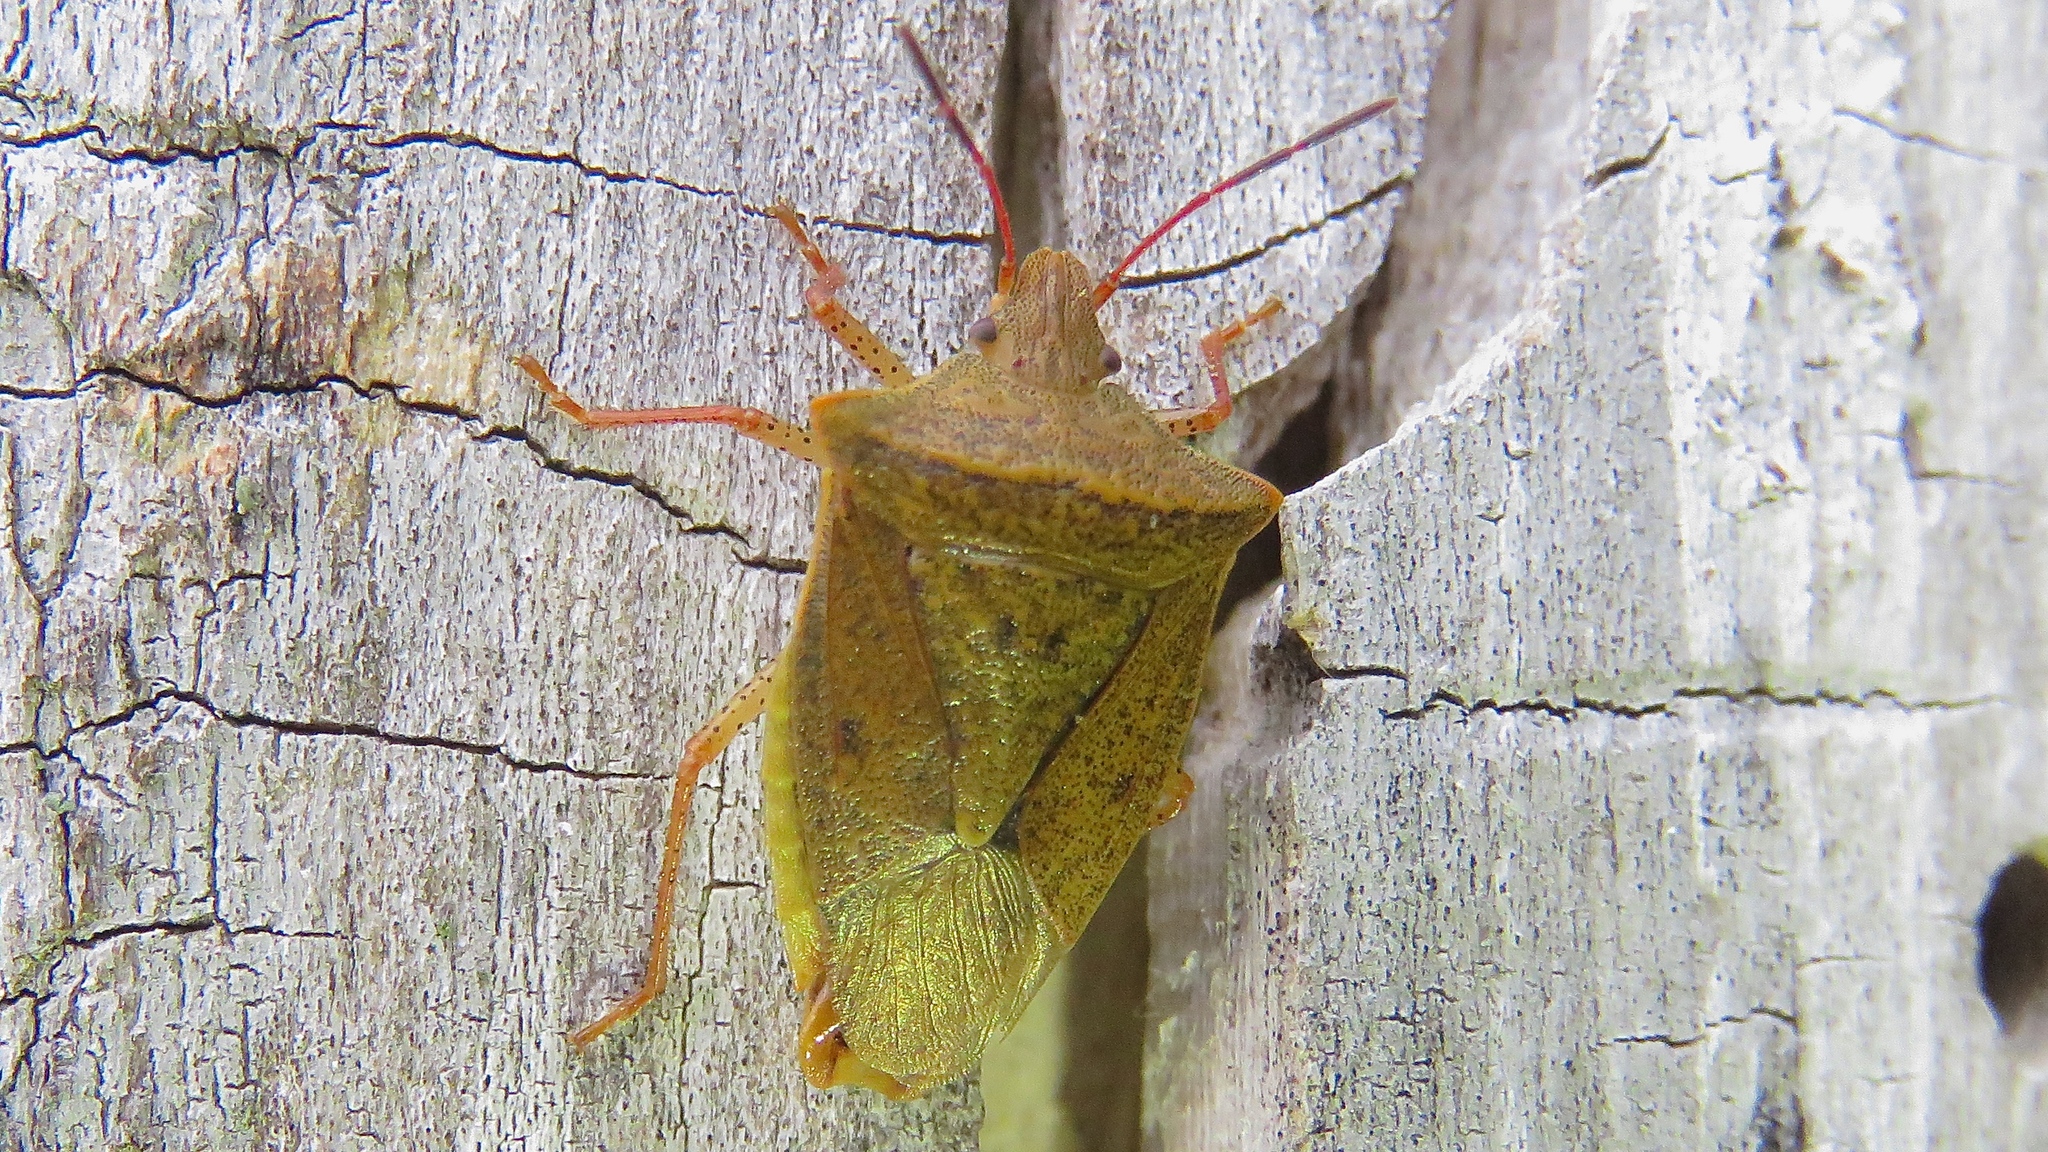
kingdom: Animalia
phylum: Arthropoda
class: Insecta
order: Hemiptera
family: Pentatomidae
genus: Euschistus
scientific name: Euschistus ictericus
